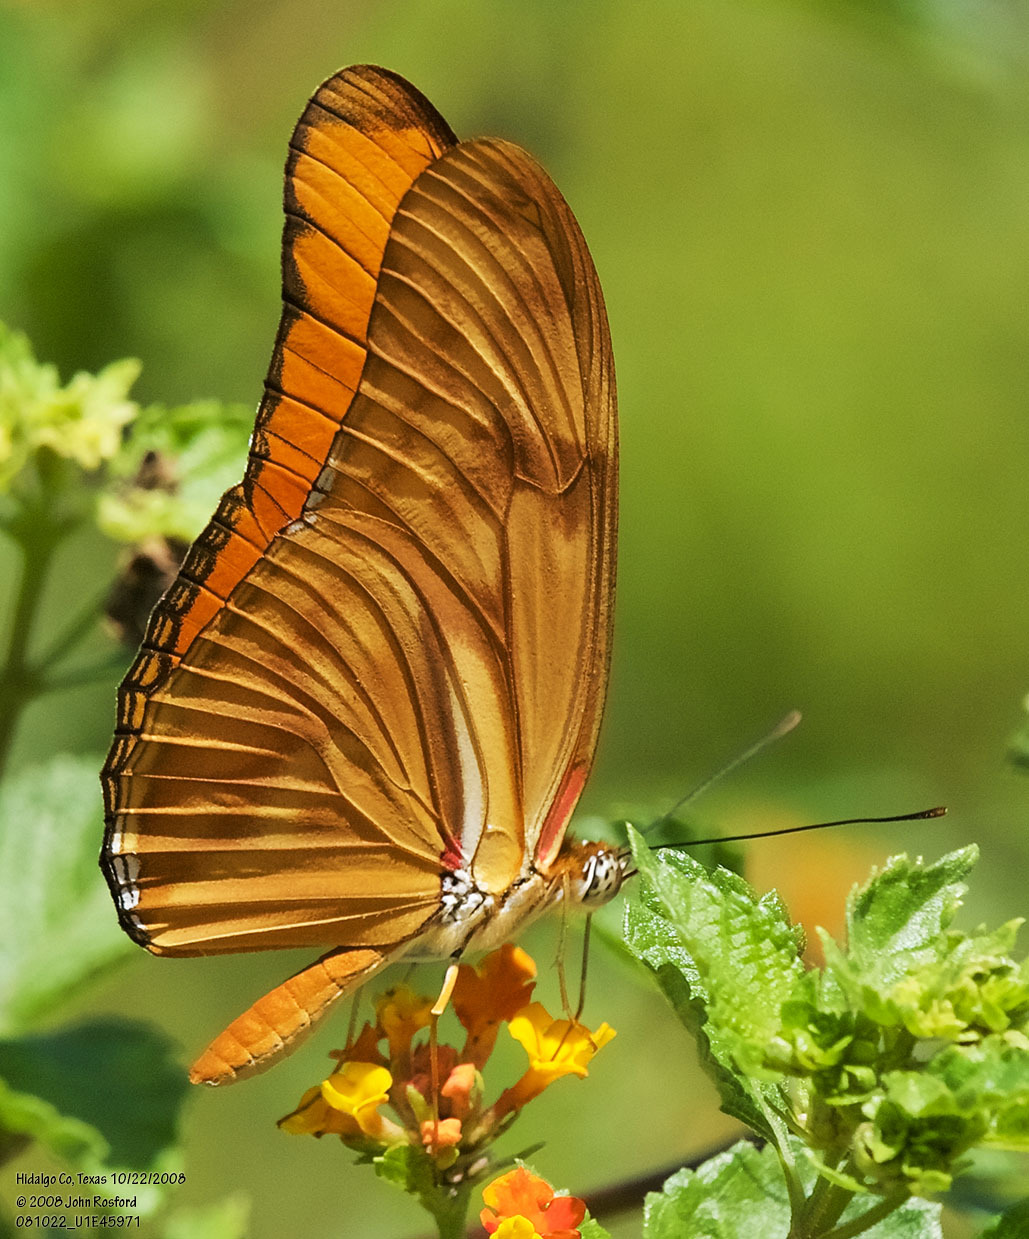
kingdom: Animalia
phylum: Arthropoda
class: Insecta
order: Lepidoptera
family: Nymphalidae
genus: Dryas
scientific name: Dryas iulia
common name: Flambeau
